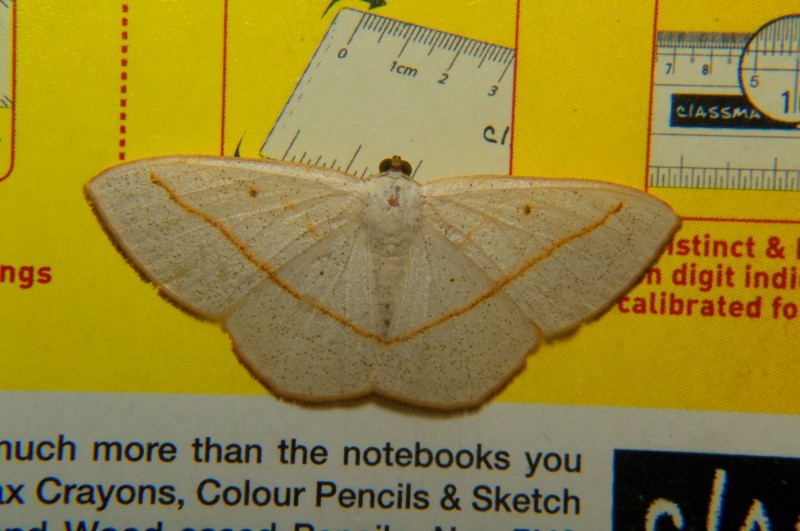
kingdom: Animalia
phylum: Arthropoda
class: Insecta
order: Lepidoptera
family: Geometridae
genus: Lomographa
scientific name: Lomographa inamata
